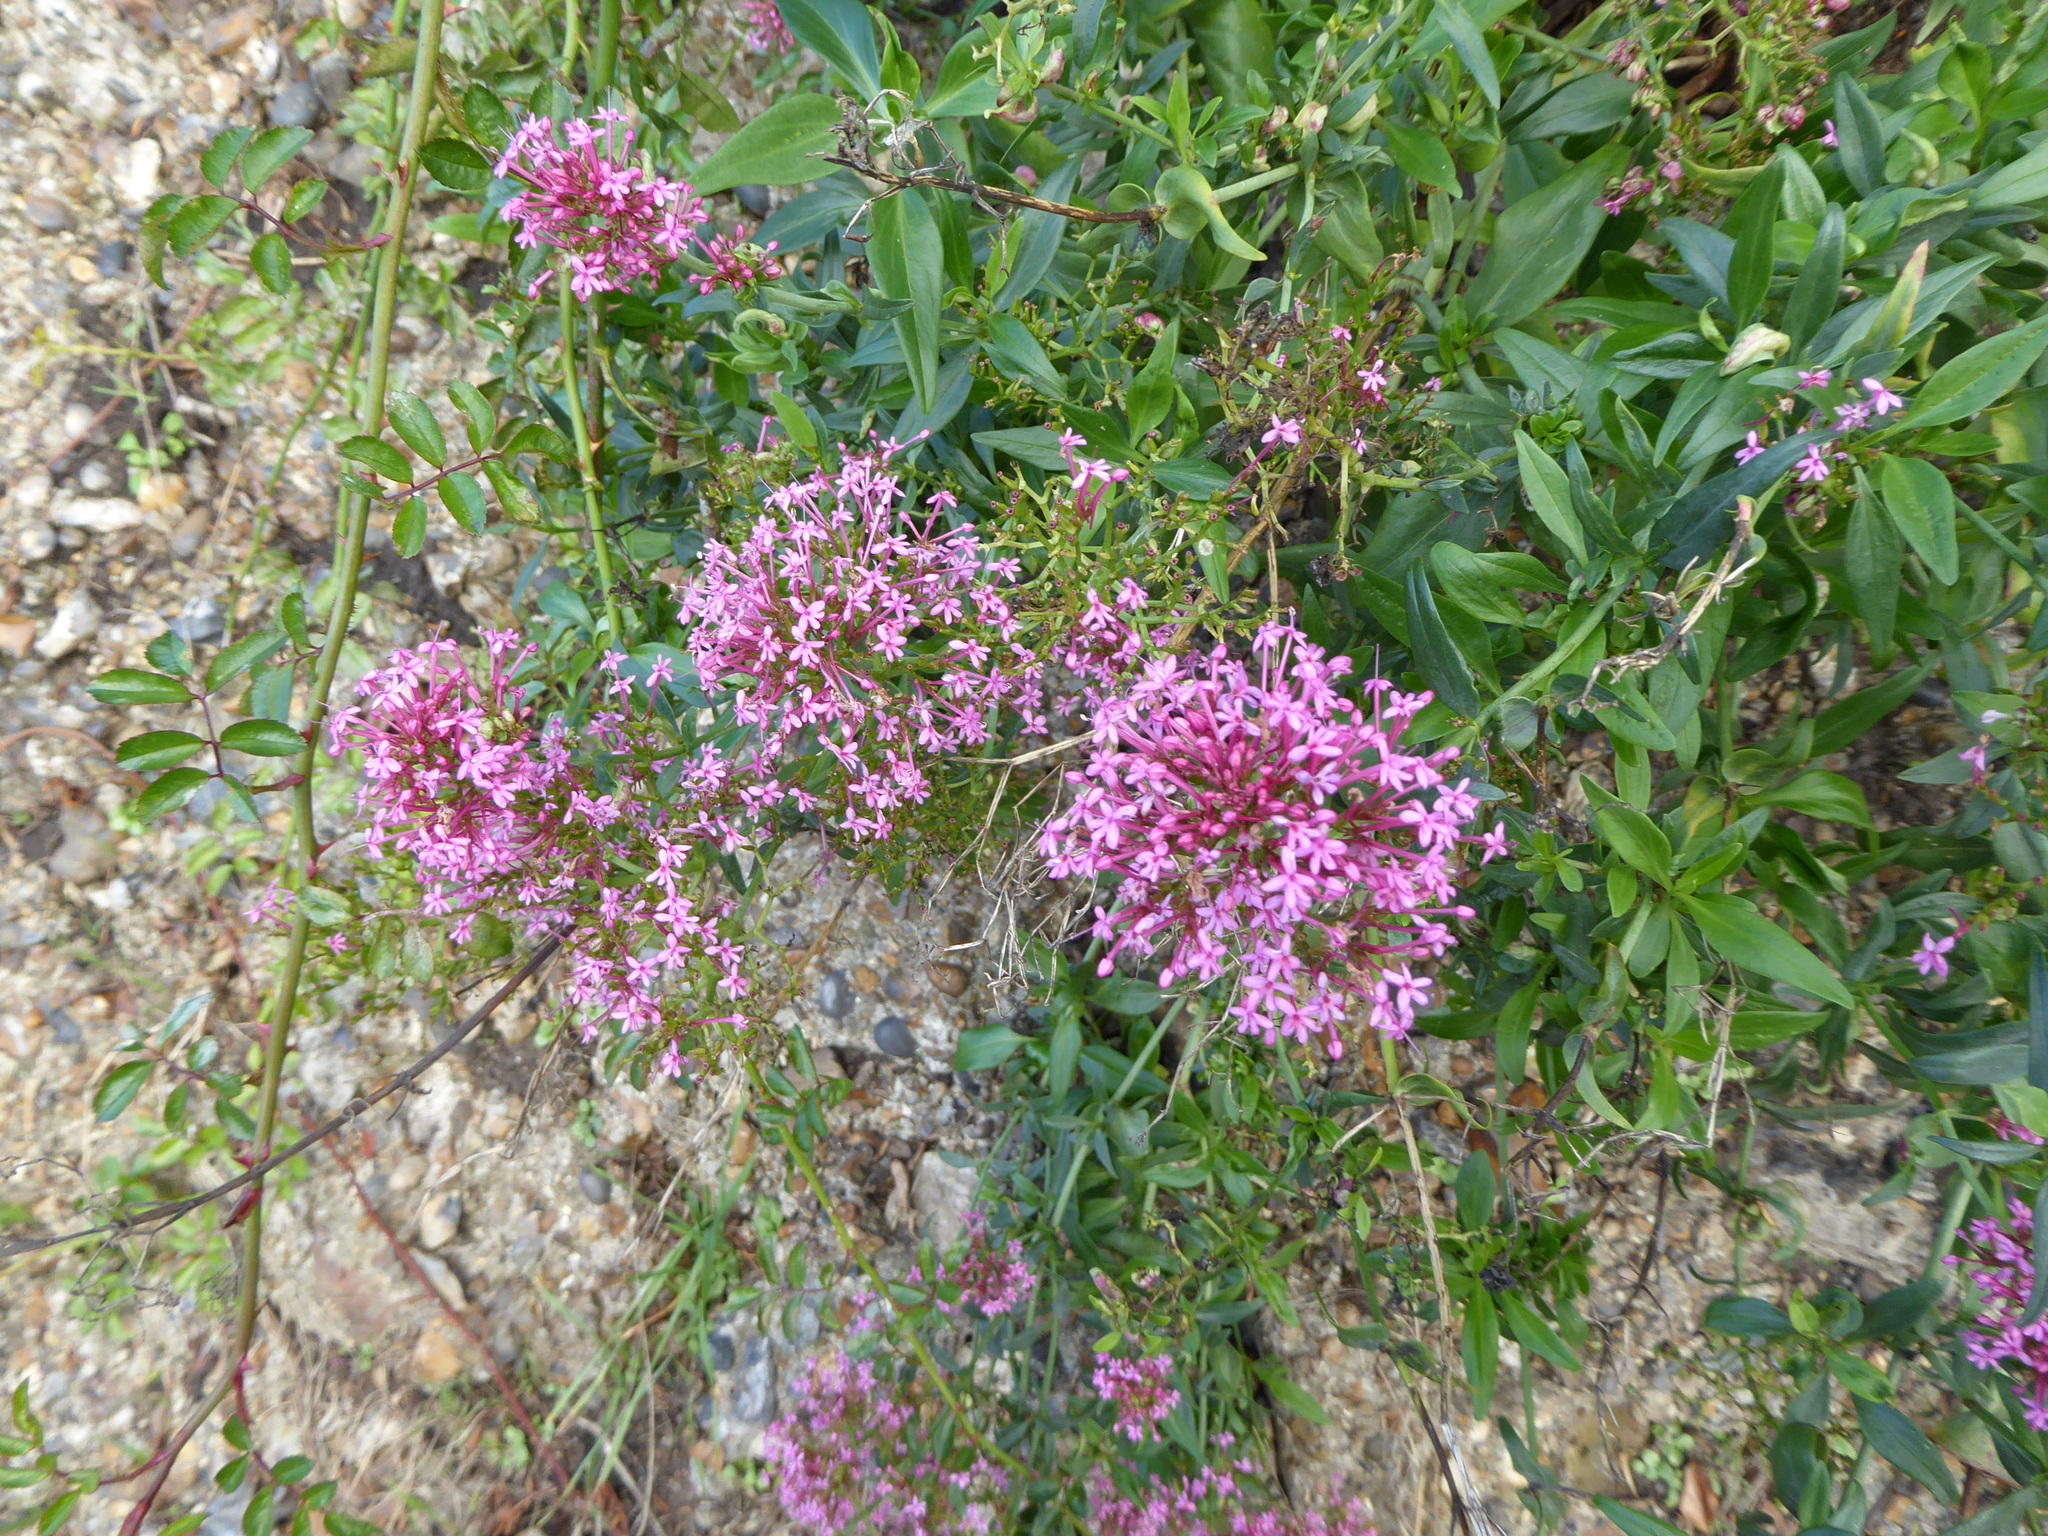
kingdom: Plantae
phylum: Tracheophyta
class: Magnoliopsida
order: Dipsacales
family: Caprifoliaceae
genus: Centranthus
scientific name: Centranthus ruber
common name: Red valerian
